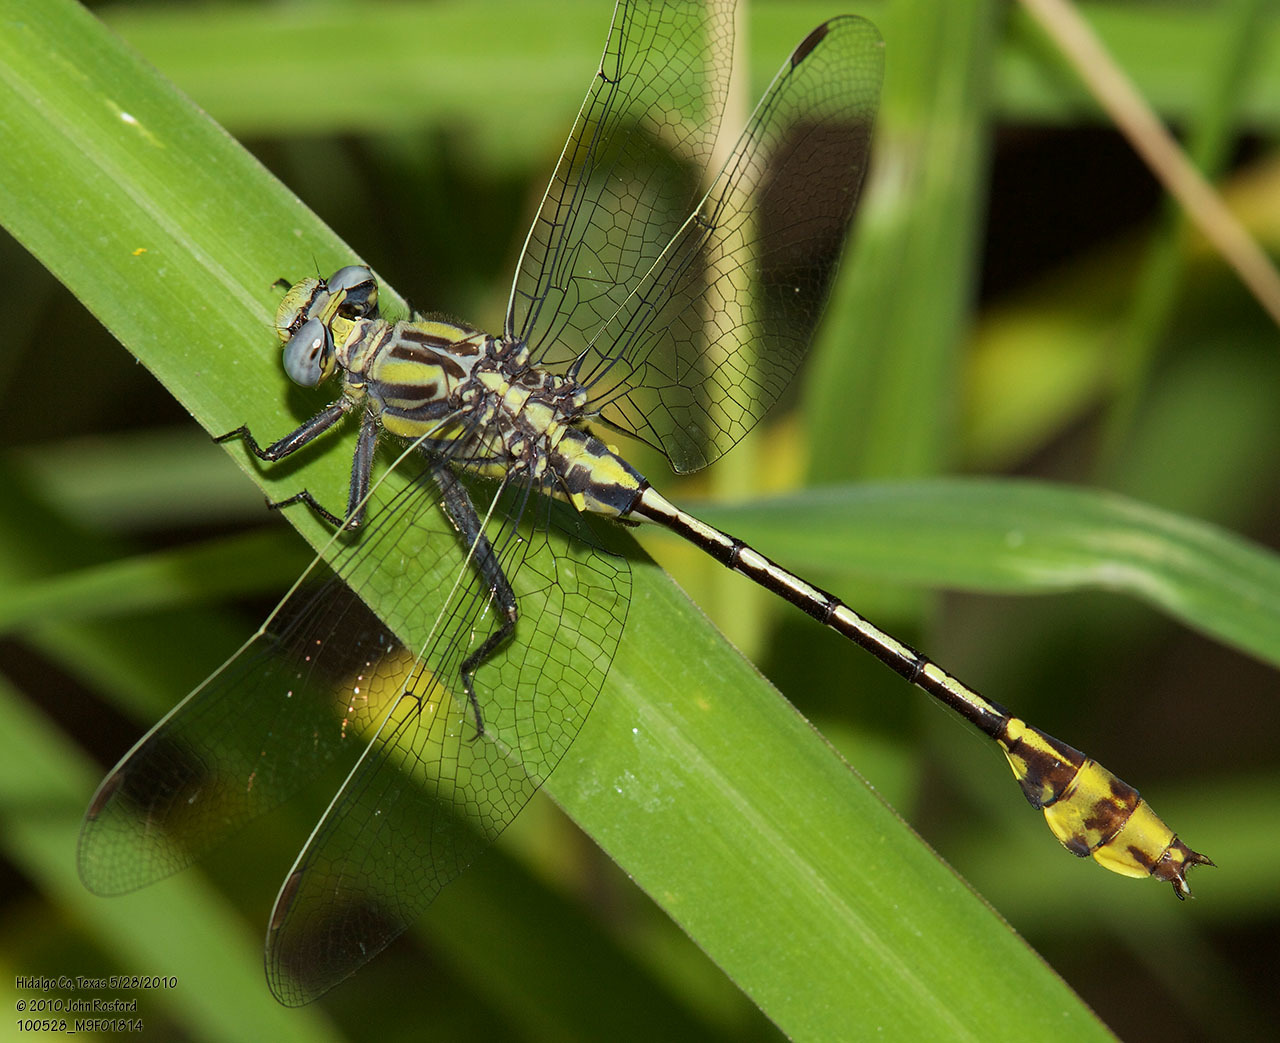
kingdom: Animalia
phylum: Arthropoda
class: Insecta
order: Odonata
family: Gomphidae
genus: Gomphurus
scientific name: Gomphurus gonzalezi
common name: Tamaulipan clubtail
